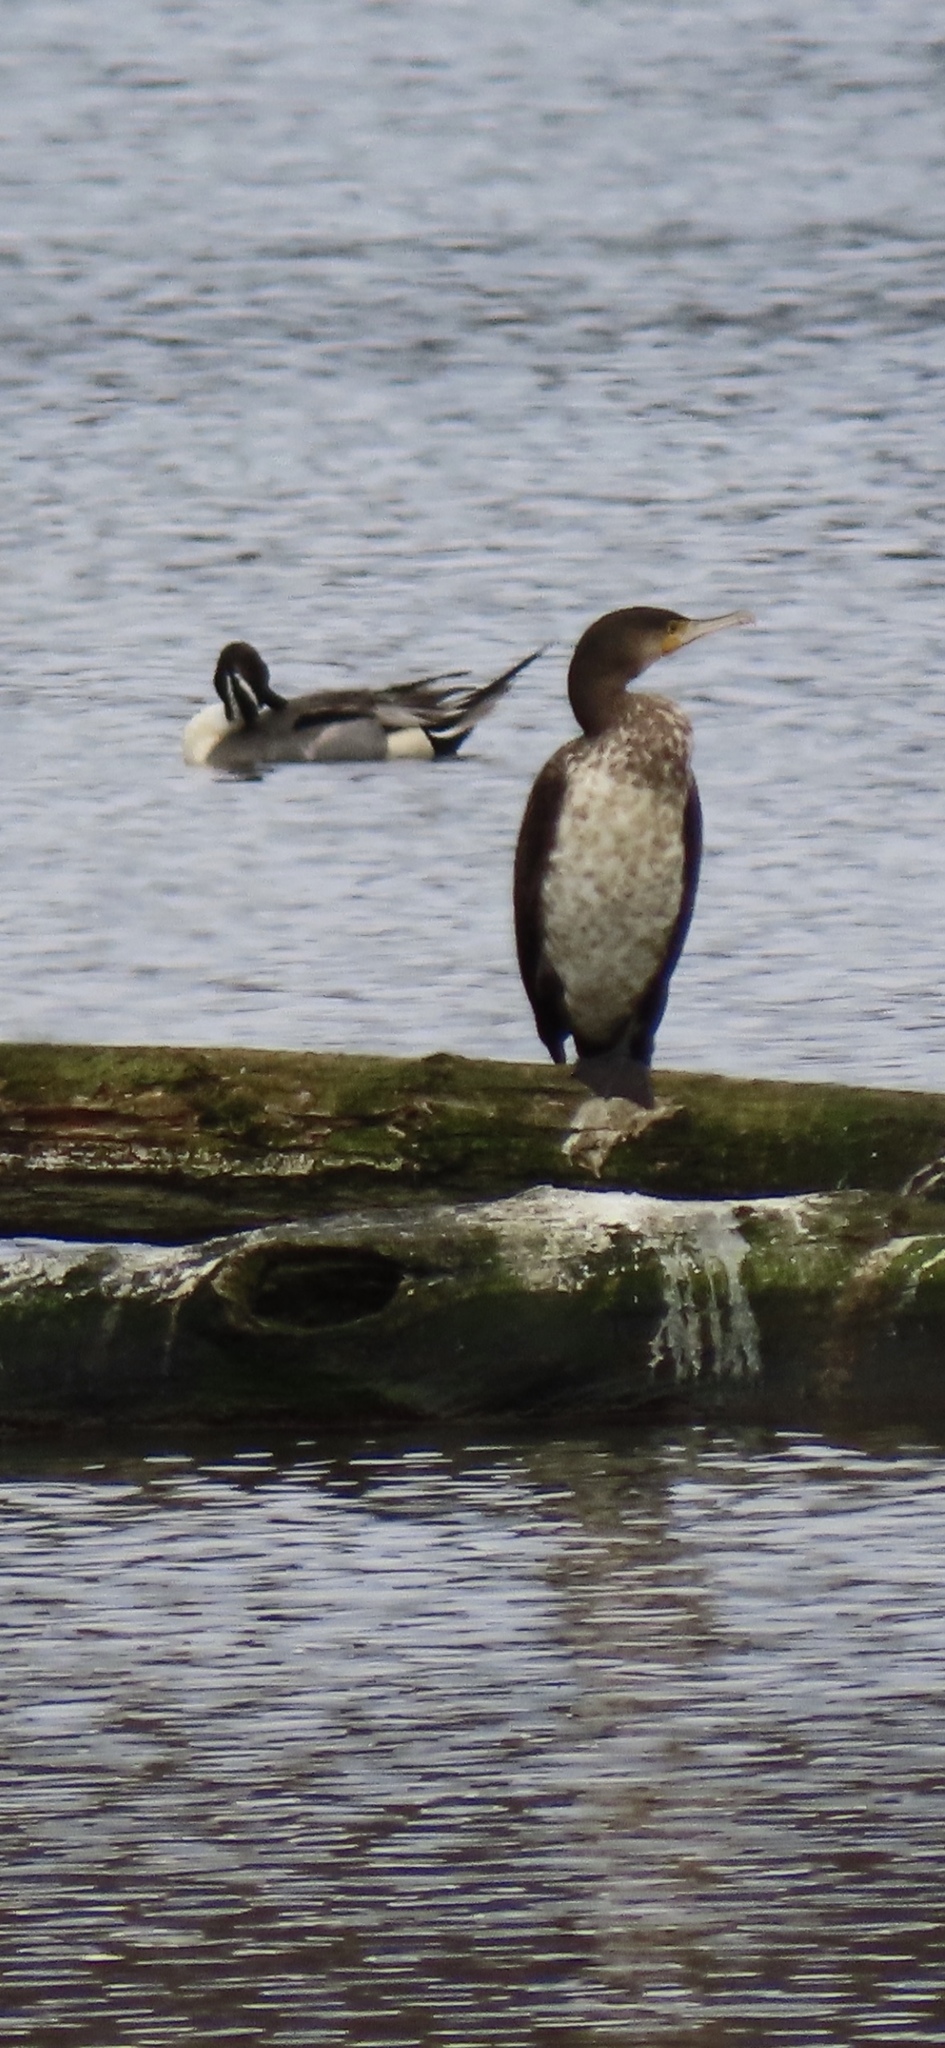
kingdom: Animalia
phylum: Chordata
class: Aves
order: Anseriformes
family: Anatidae
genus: Anas
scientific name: Anas acuta
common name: Northern pintail
